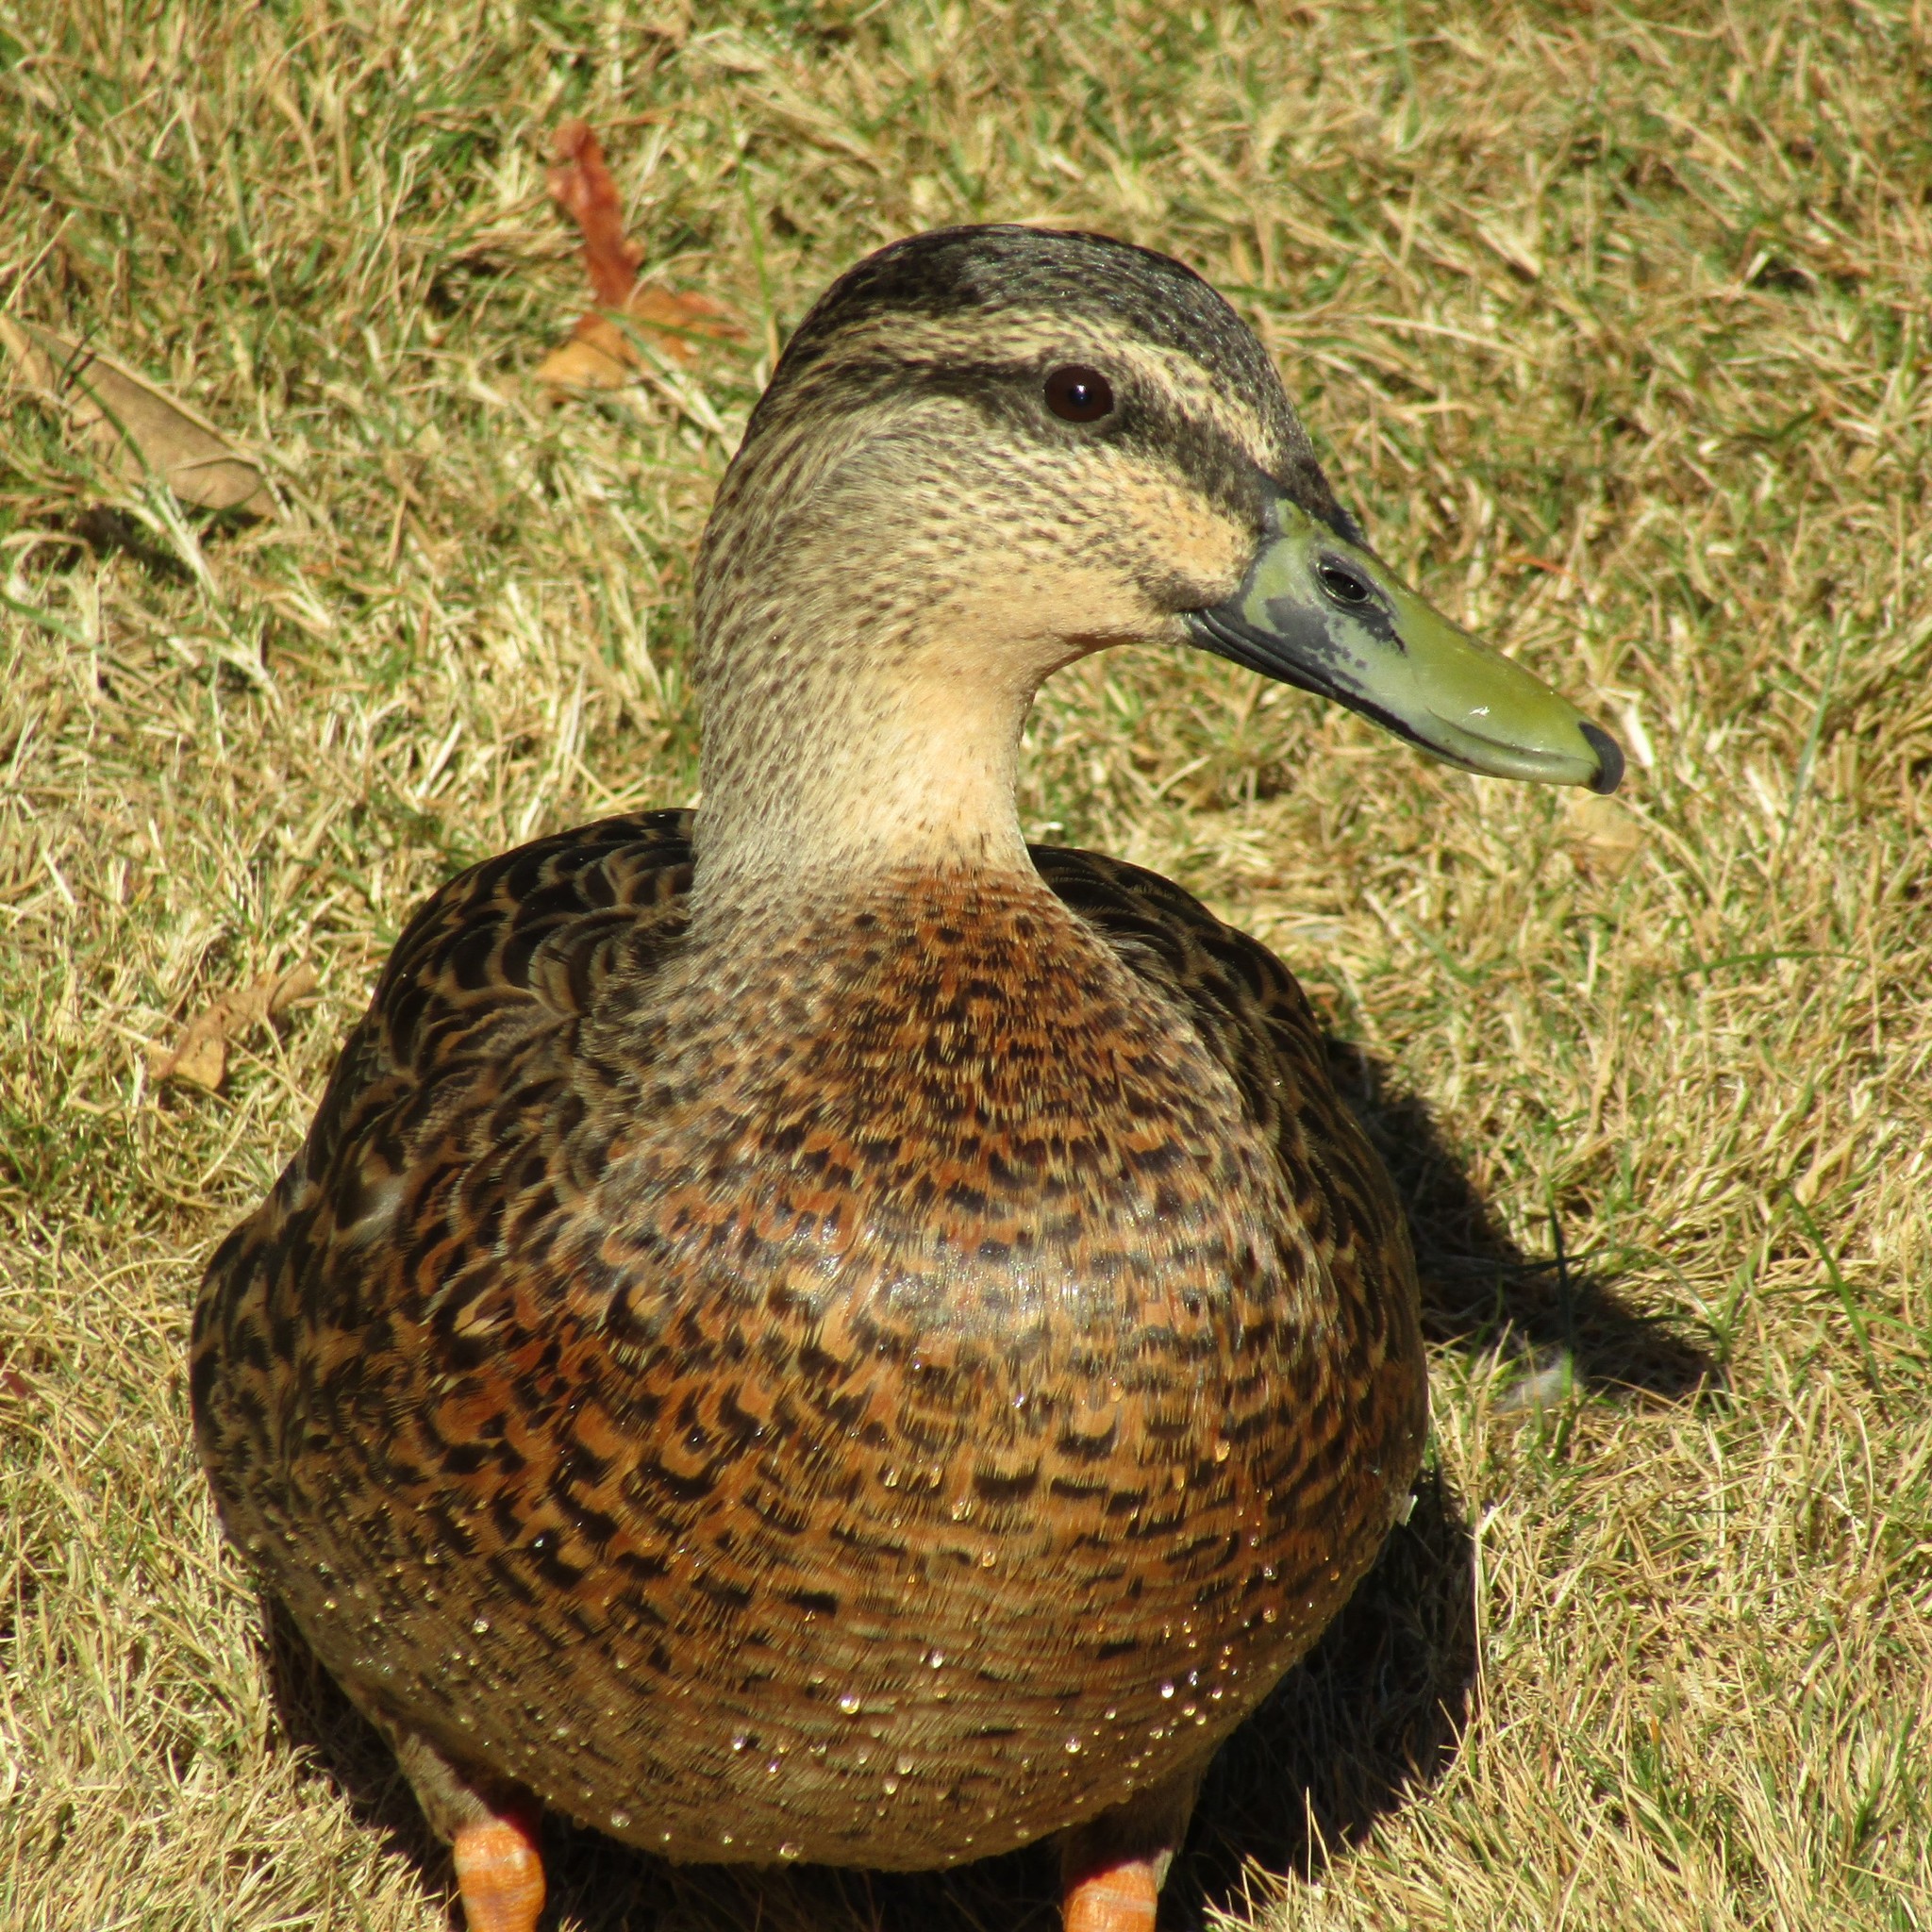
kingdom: Animalia
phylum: Chordata
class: Aves
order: Anseriformes
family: Anatidae
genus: Anas
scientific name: Anas
